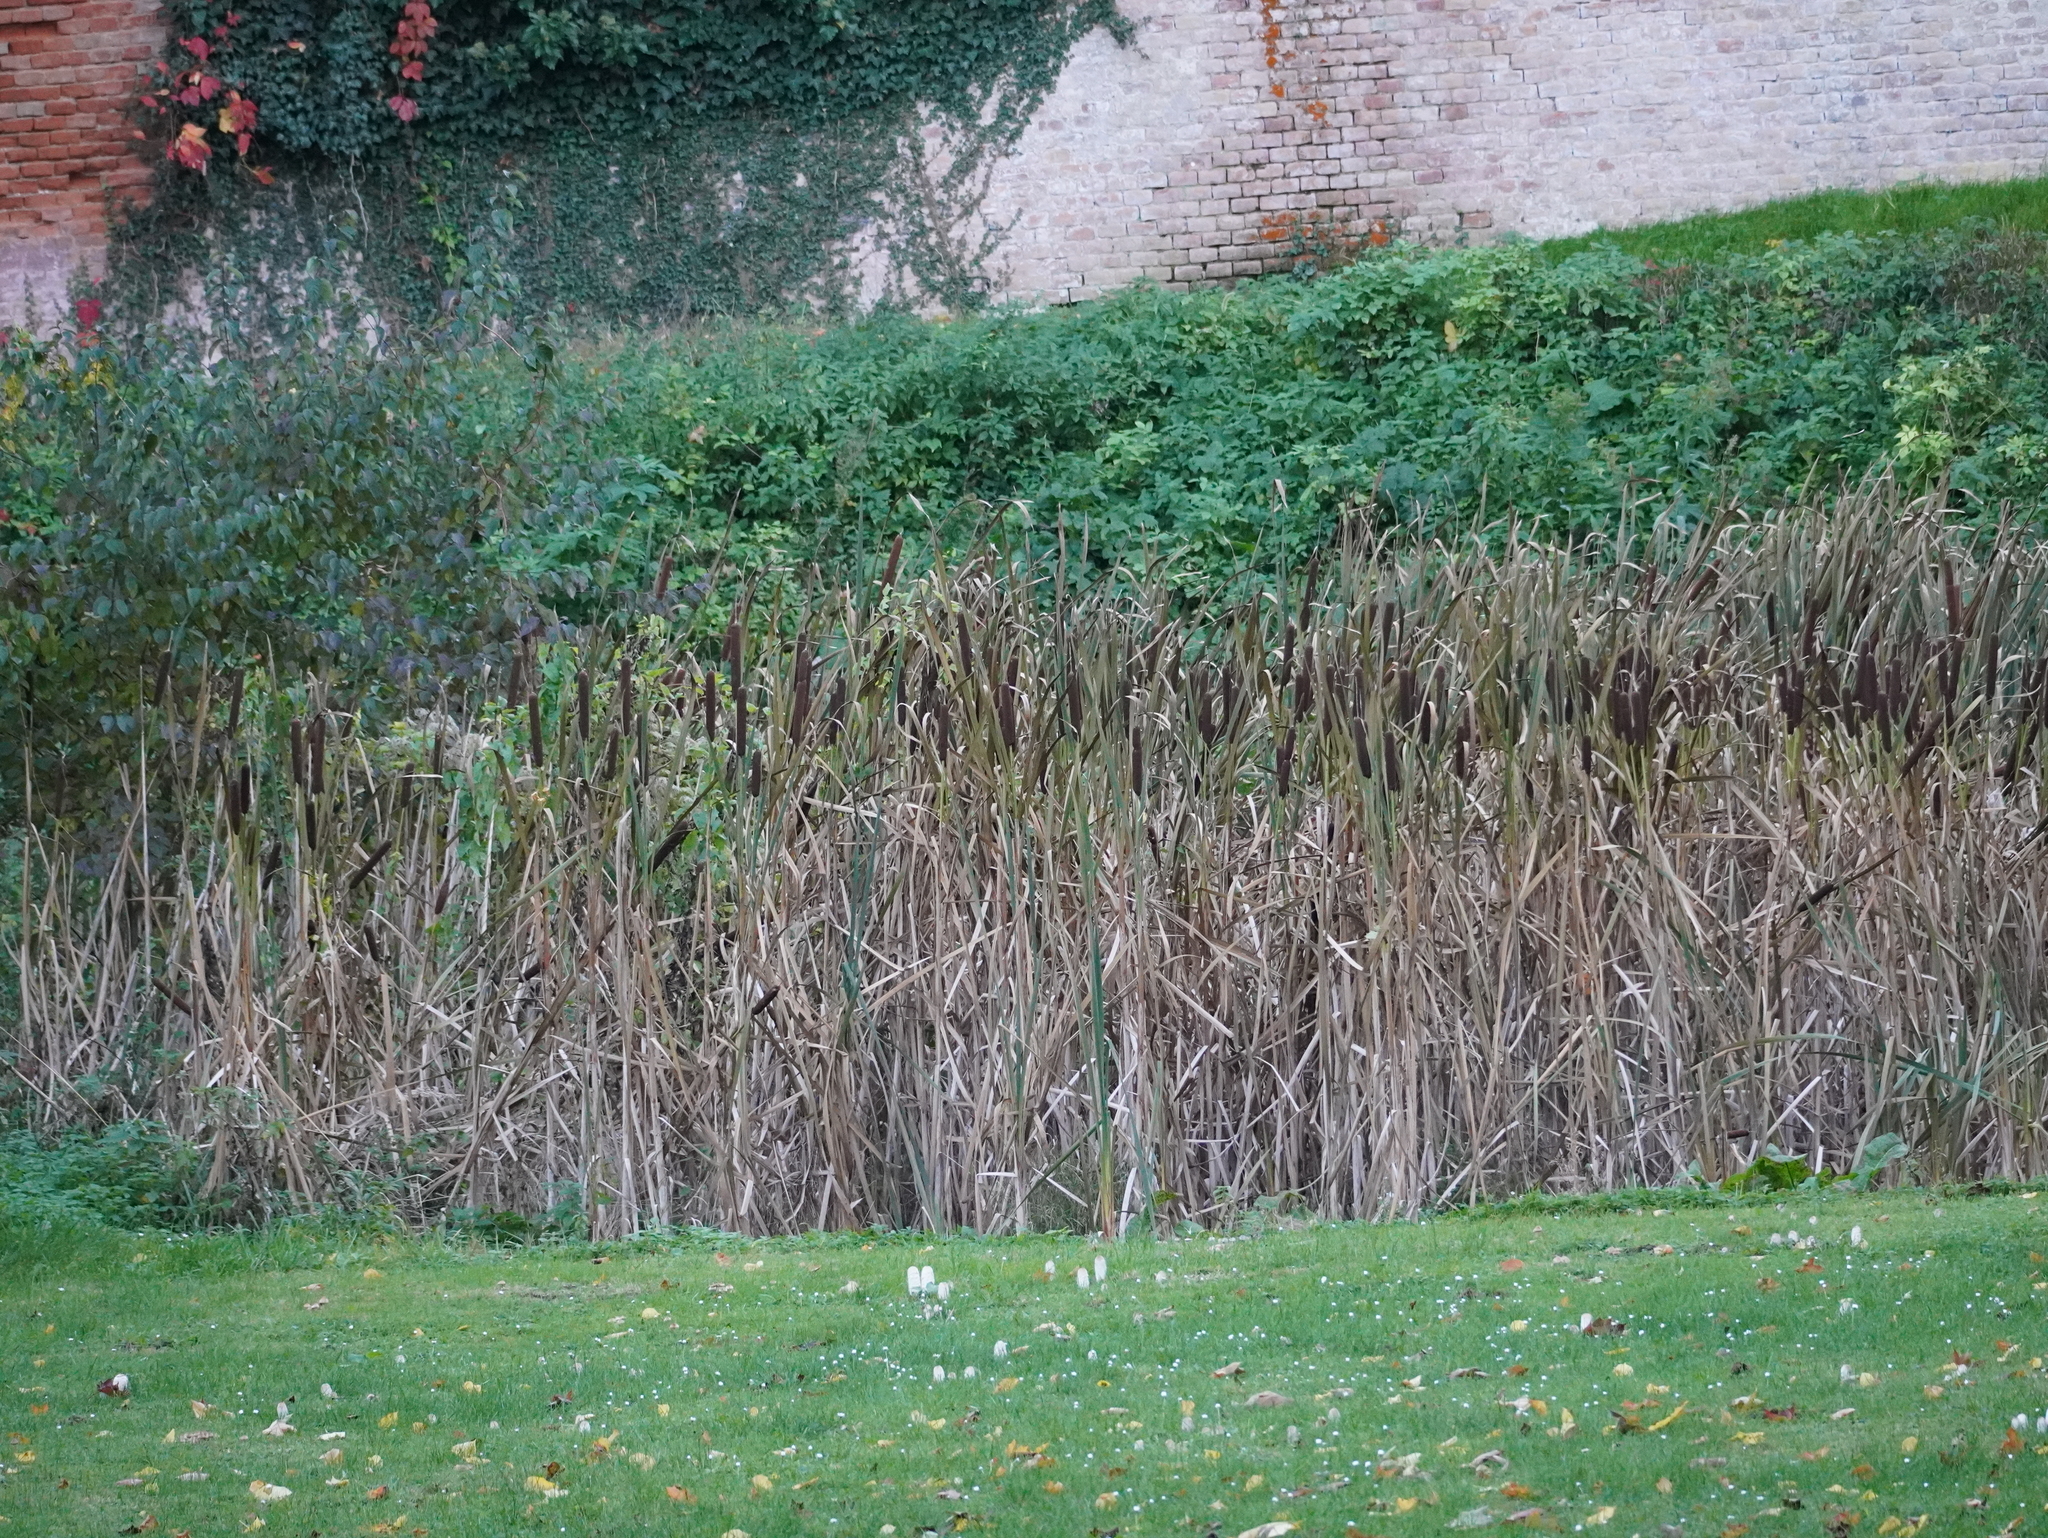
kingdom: Plantae
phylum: Tracheophyta
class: Liliopsida
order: Poales
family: Typhaceae
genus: Typha
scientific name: Typha latifolia
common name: Broadleaf cattail
